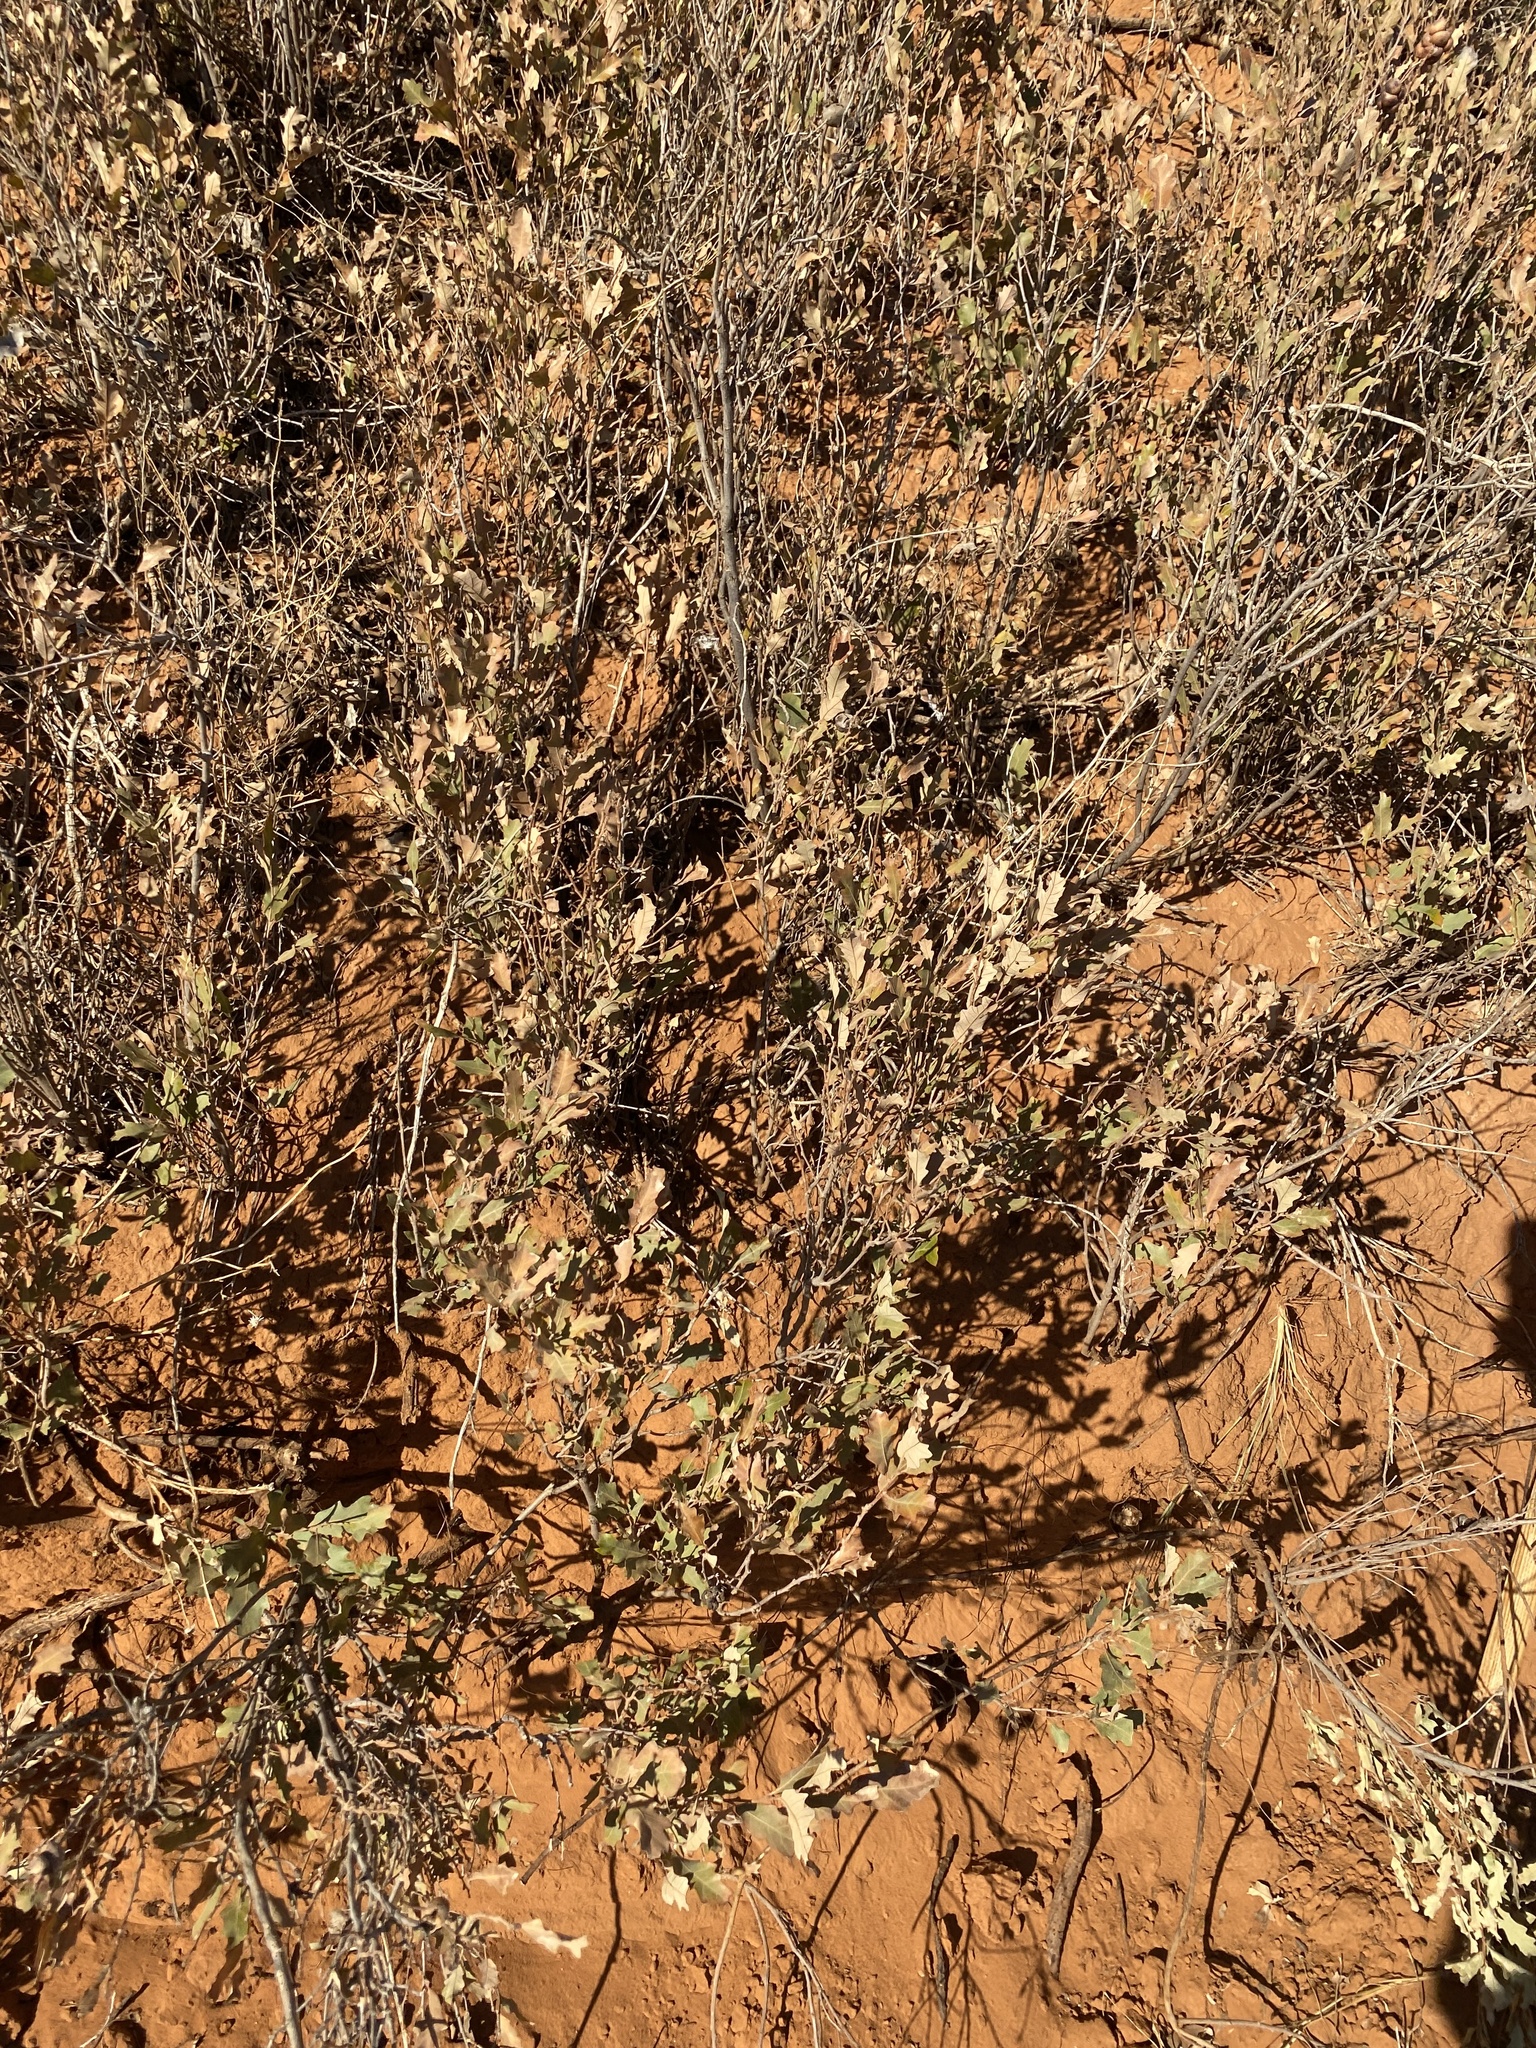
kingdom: Plantae
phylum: Tracheophyta
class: Magnoliopsida
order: Fagales
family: Fagaceae
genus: Quercus
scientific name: Quercus havardii
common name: Shinnery oak
